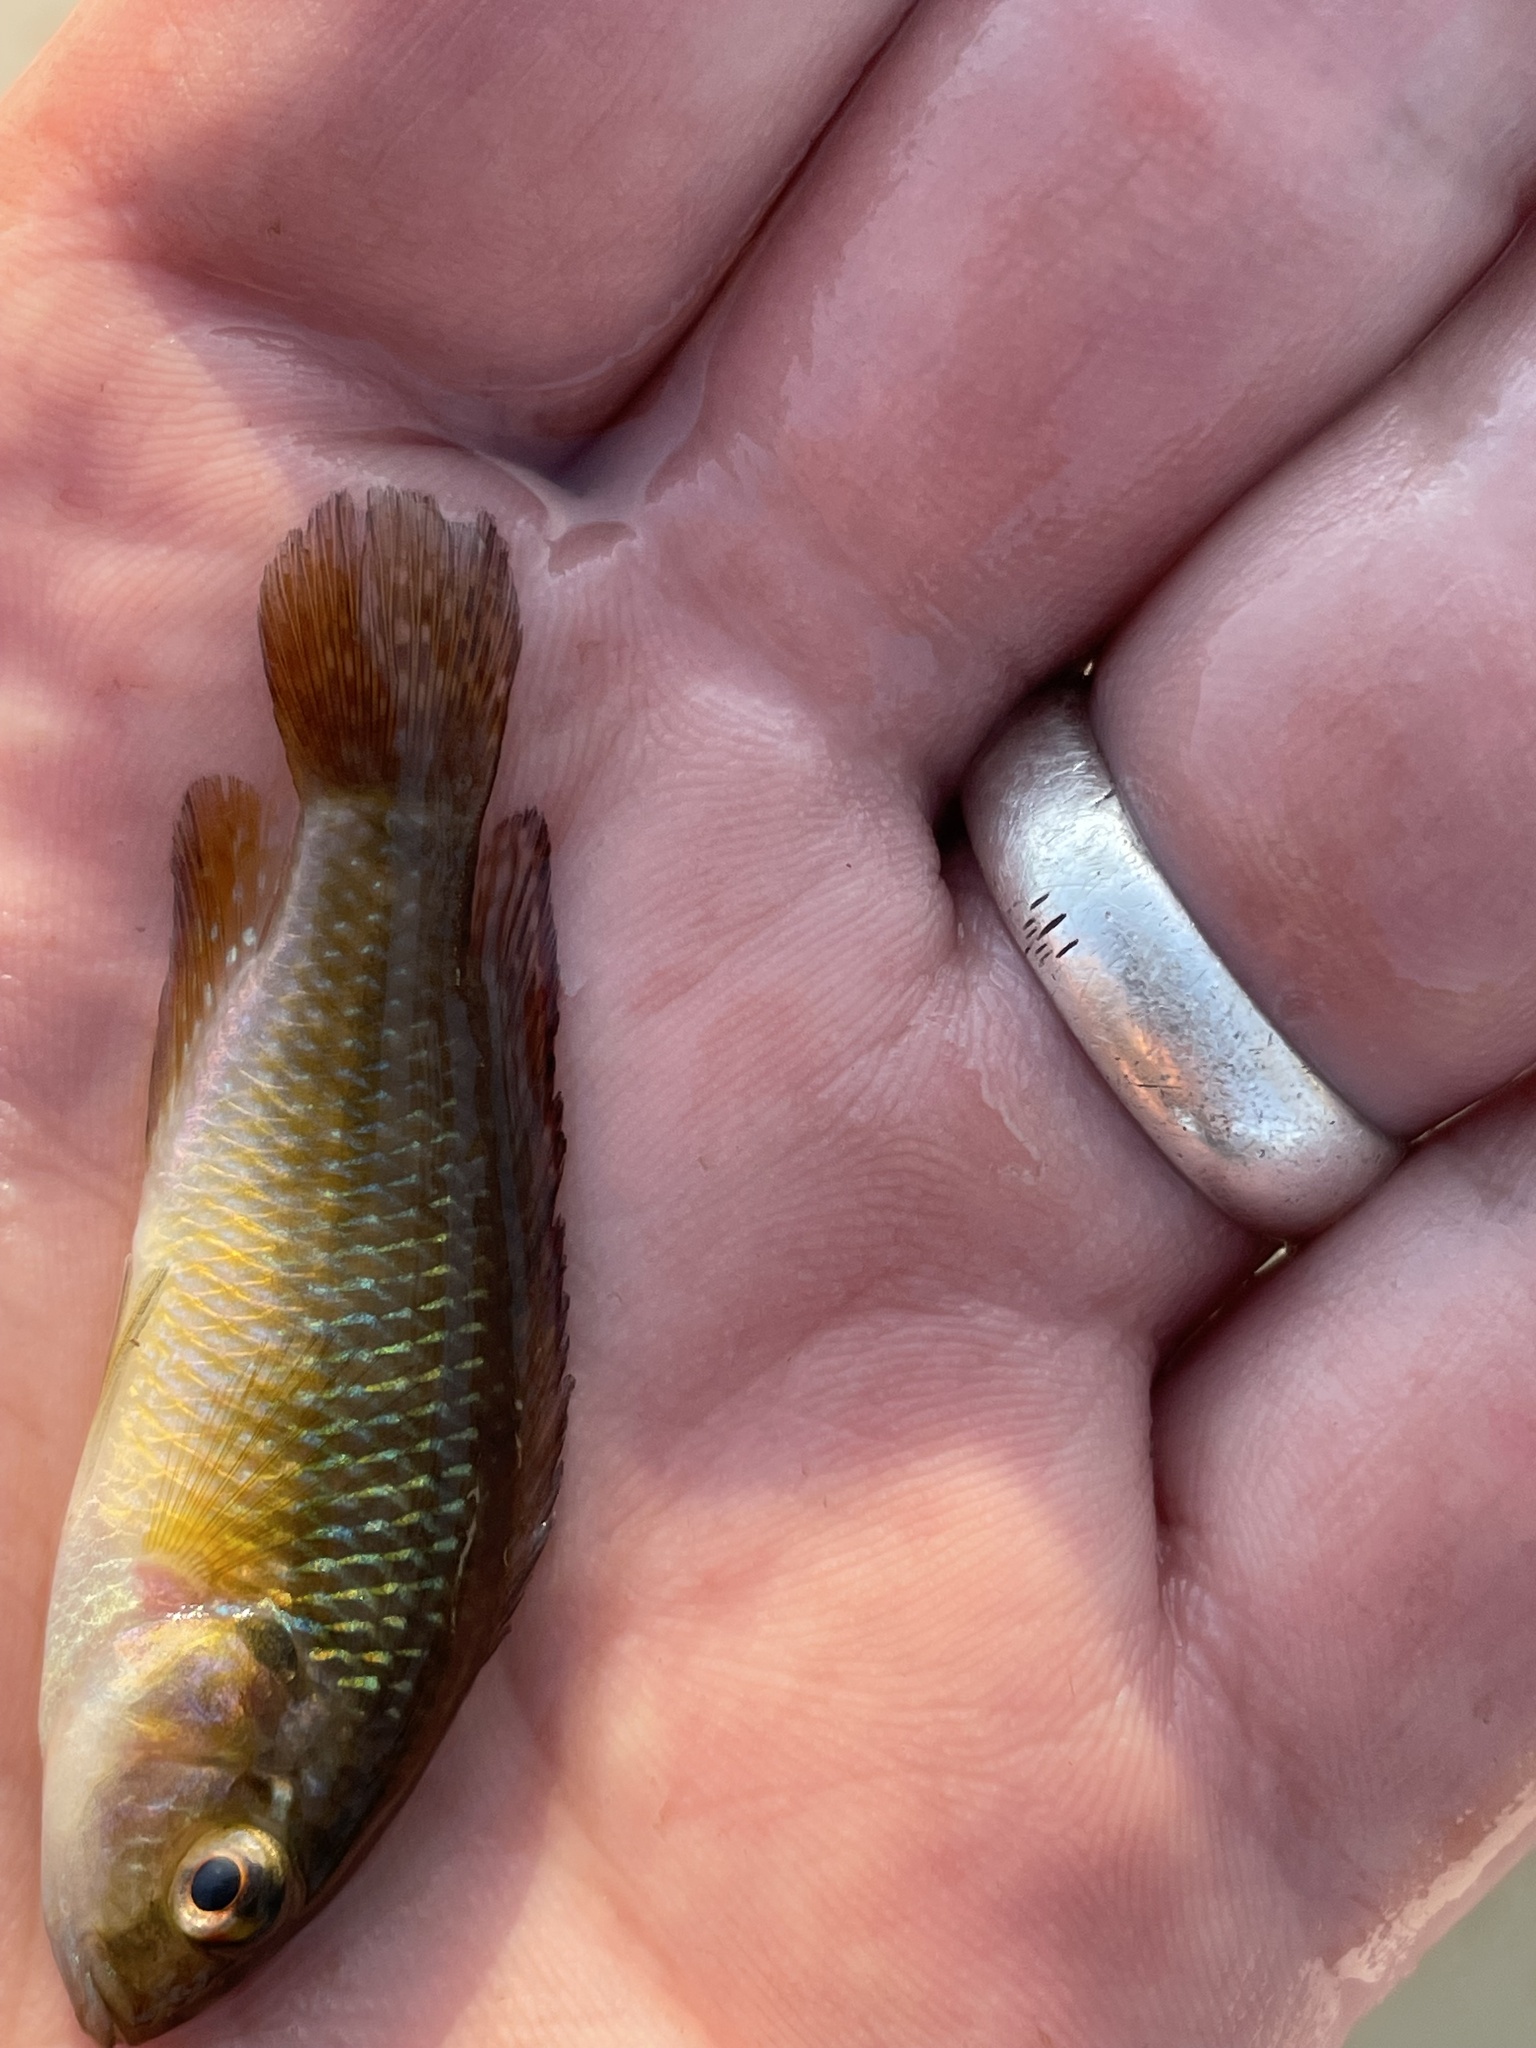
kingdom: Animalia
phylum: Chordata
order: Perciformes
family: Cichlidae
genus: Pseudocrenilabrus
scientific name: Pseudocrenilabrus philander
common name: Southern mouthbrooder
